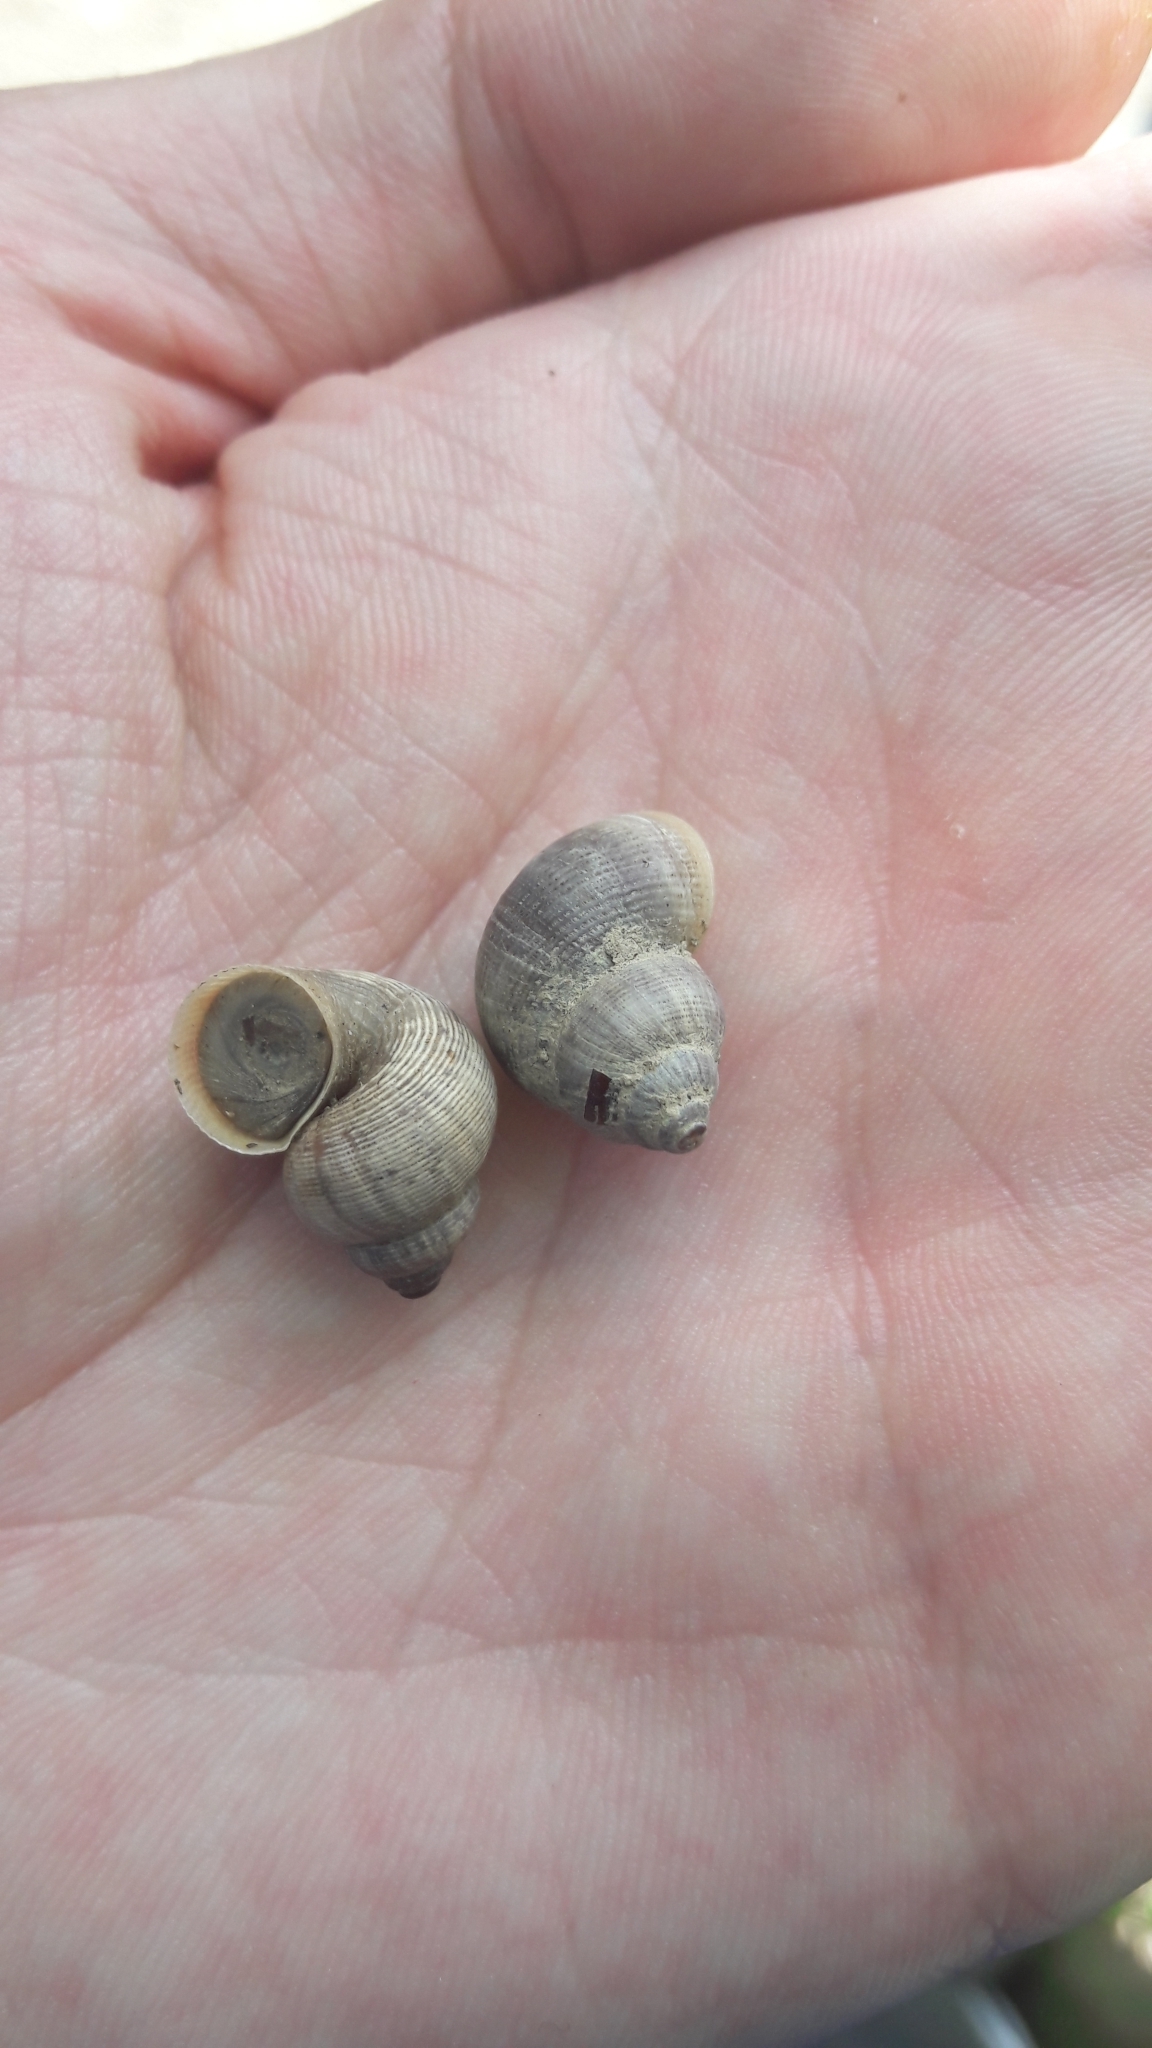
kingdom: Animalia
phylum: Mollusca
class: Gastropoda
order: Littorinimorpha
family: Pomatiidae
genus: Pomatias
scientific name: Pomatias elegans
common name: Red-mouthed snail
